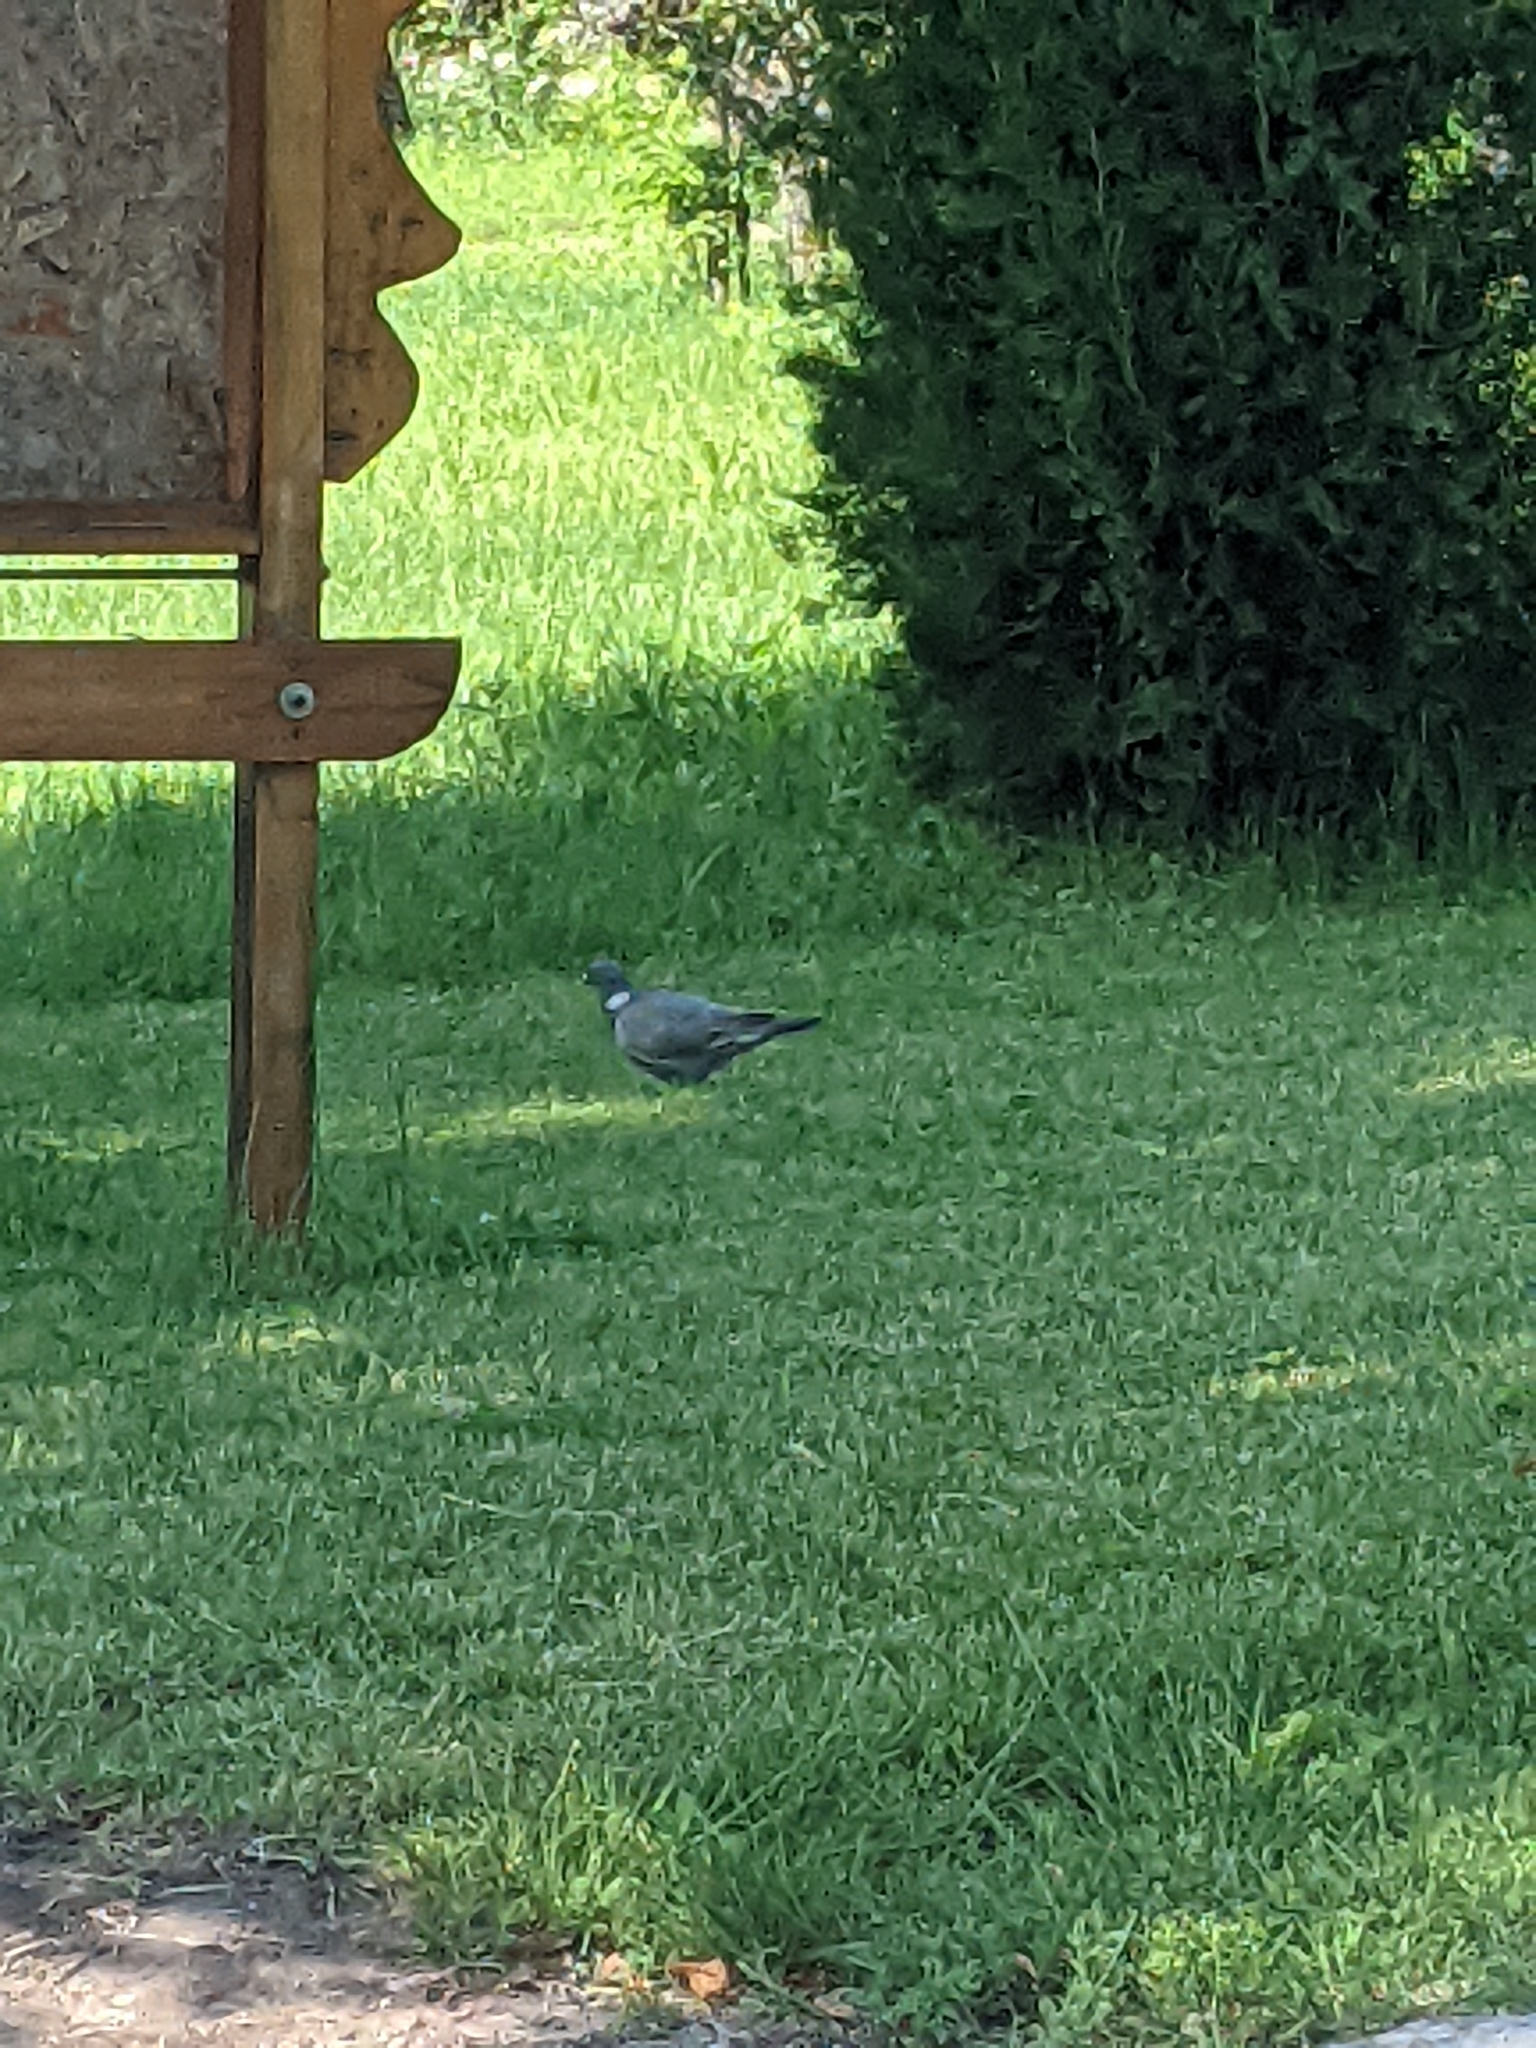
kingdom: Animalia
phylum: Chordata
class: Aves
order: Columbiformes
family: Columbidae
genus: Columba
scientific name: Columba palumbus
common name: Common wood pigeon
